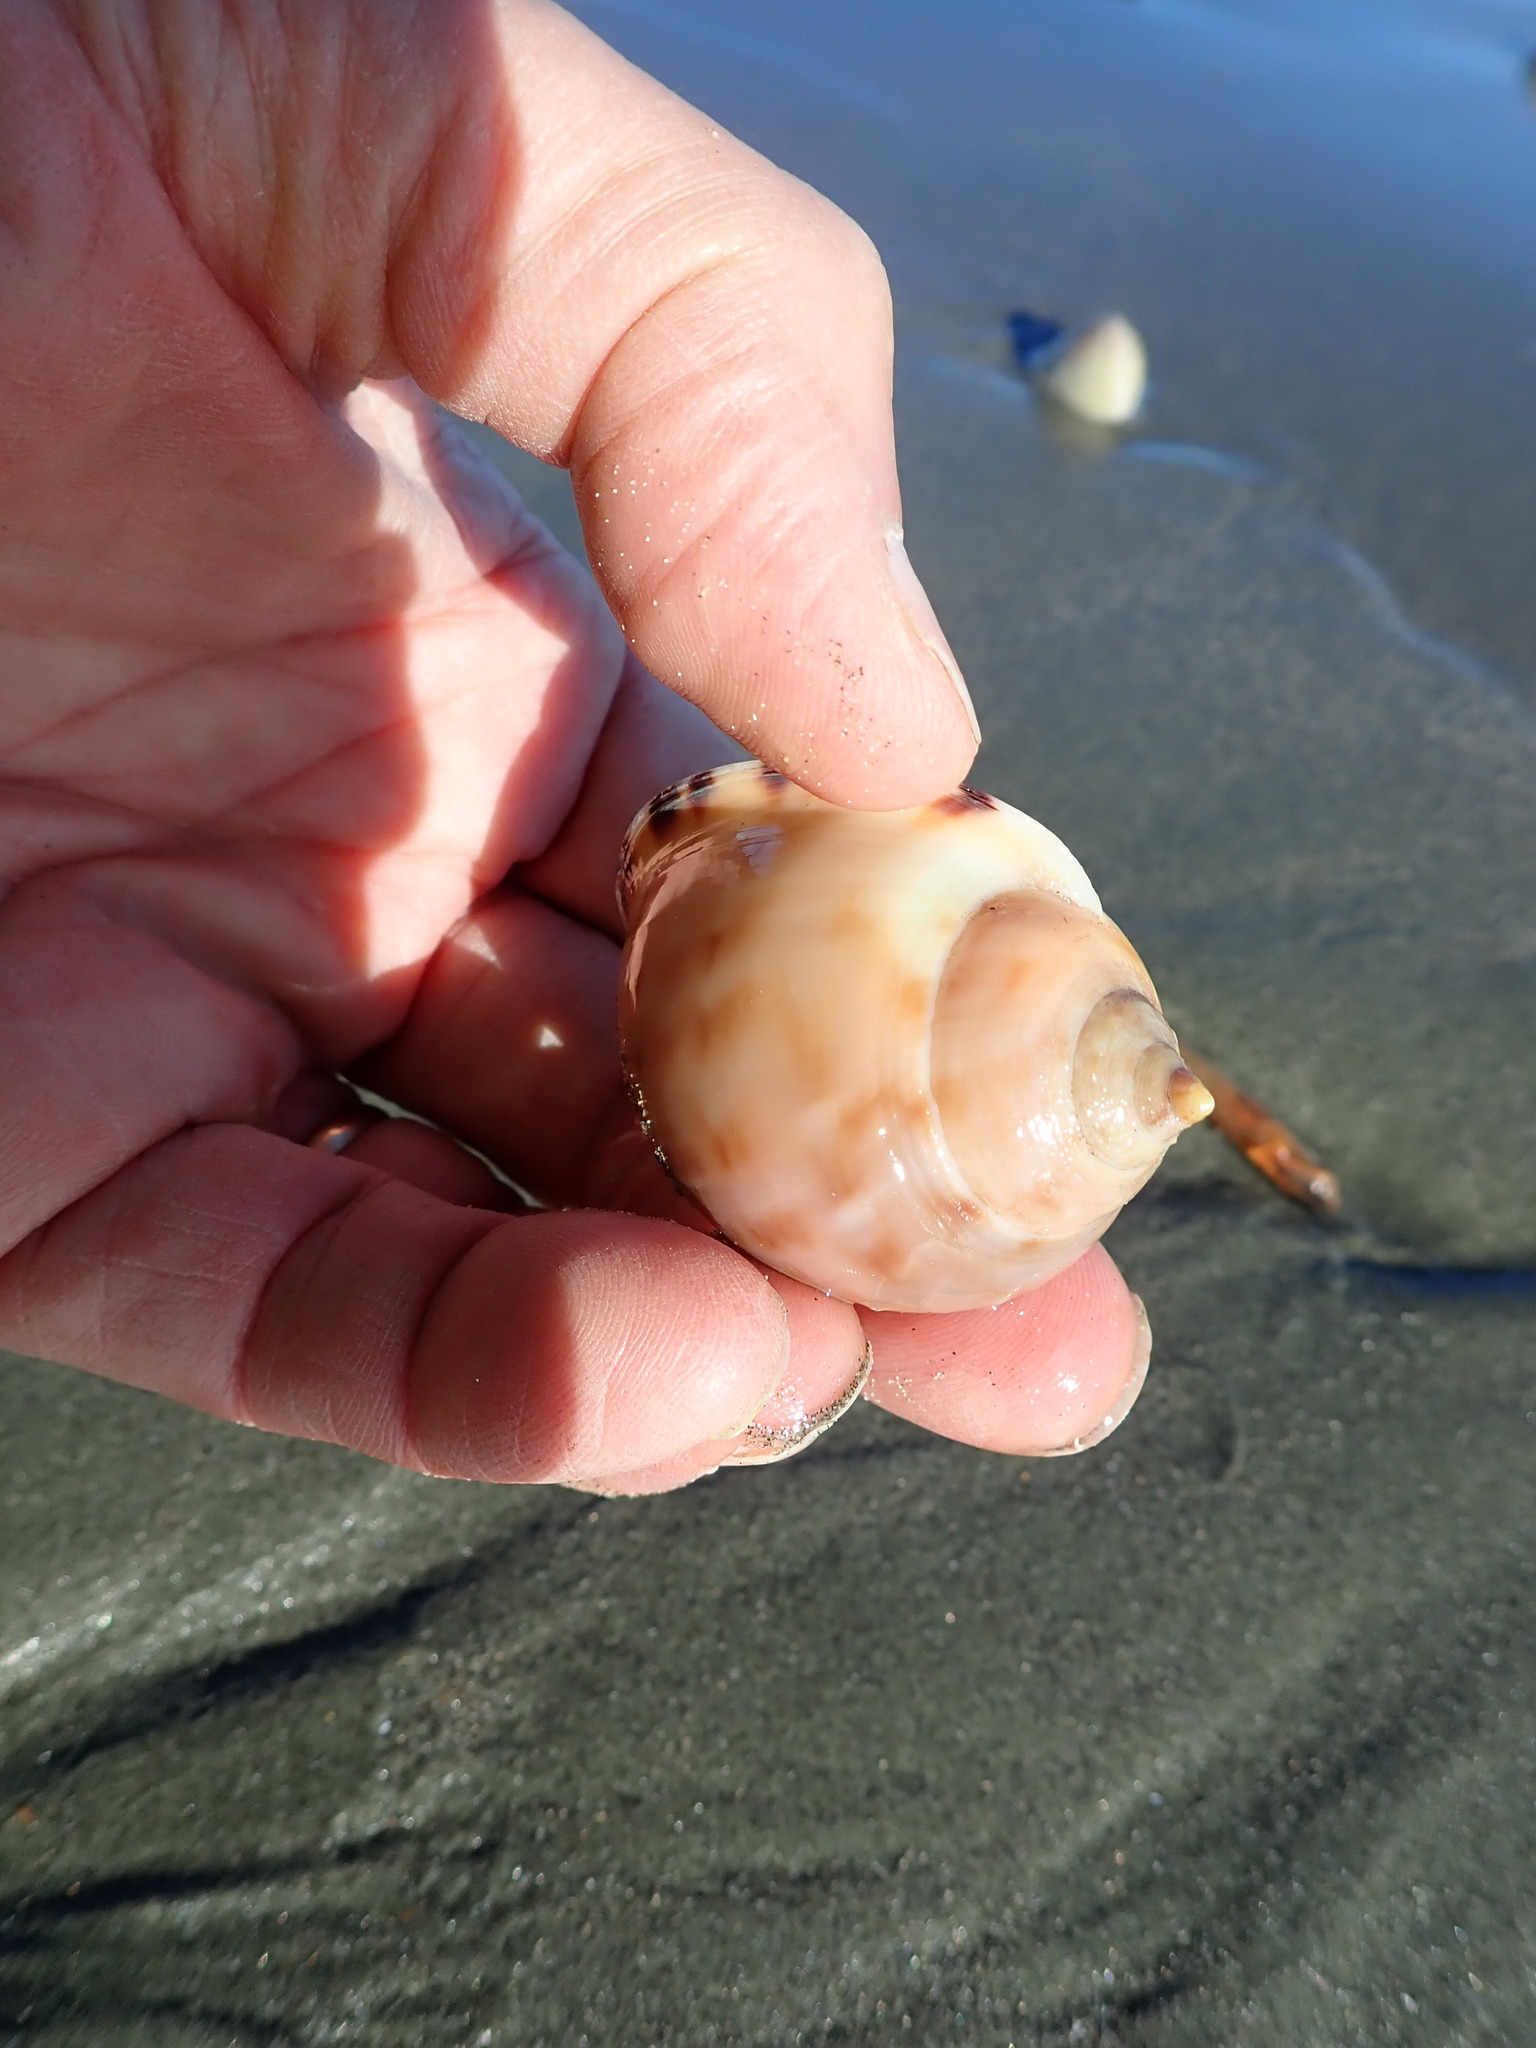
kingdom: Animalia
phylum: Mollusca
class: Gastropoda
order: Littorinimorpha
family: Cassidae
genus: Semicassis
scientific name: Semicassis pyrum
